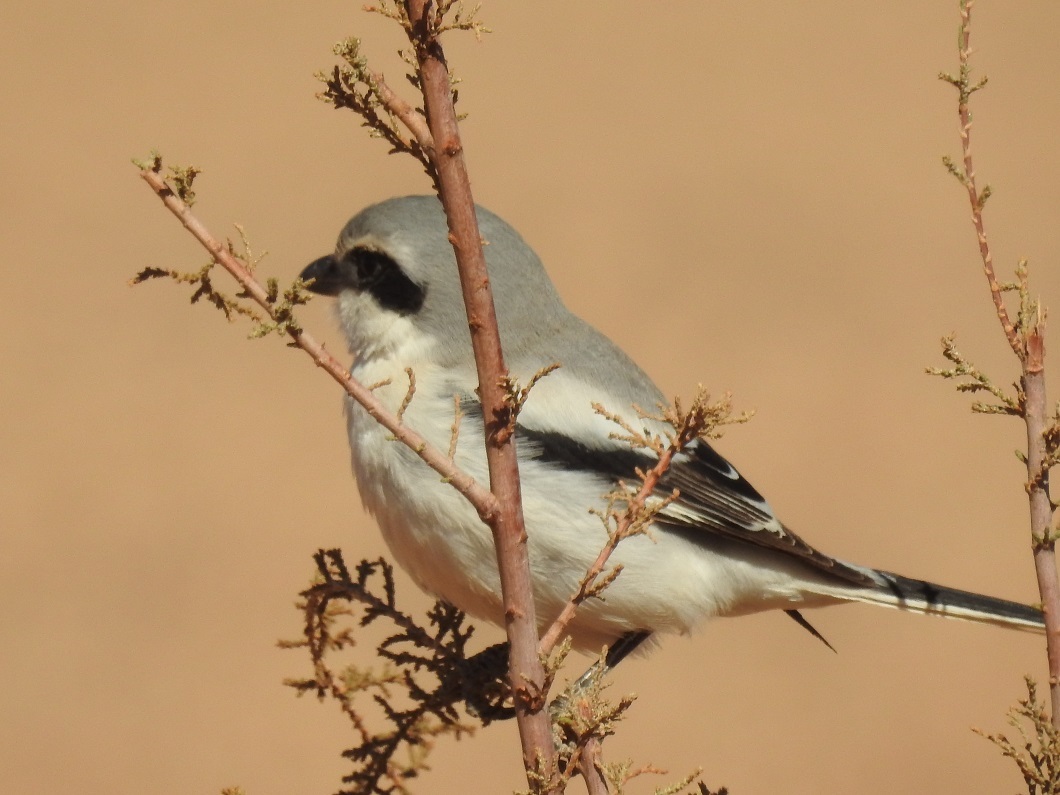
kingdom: Animalia
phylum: Chordata
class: Aves
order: Passeriformes
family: Laniidae
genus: Lanius
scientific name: Lanius excubitor
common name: Great grey shrike
